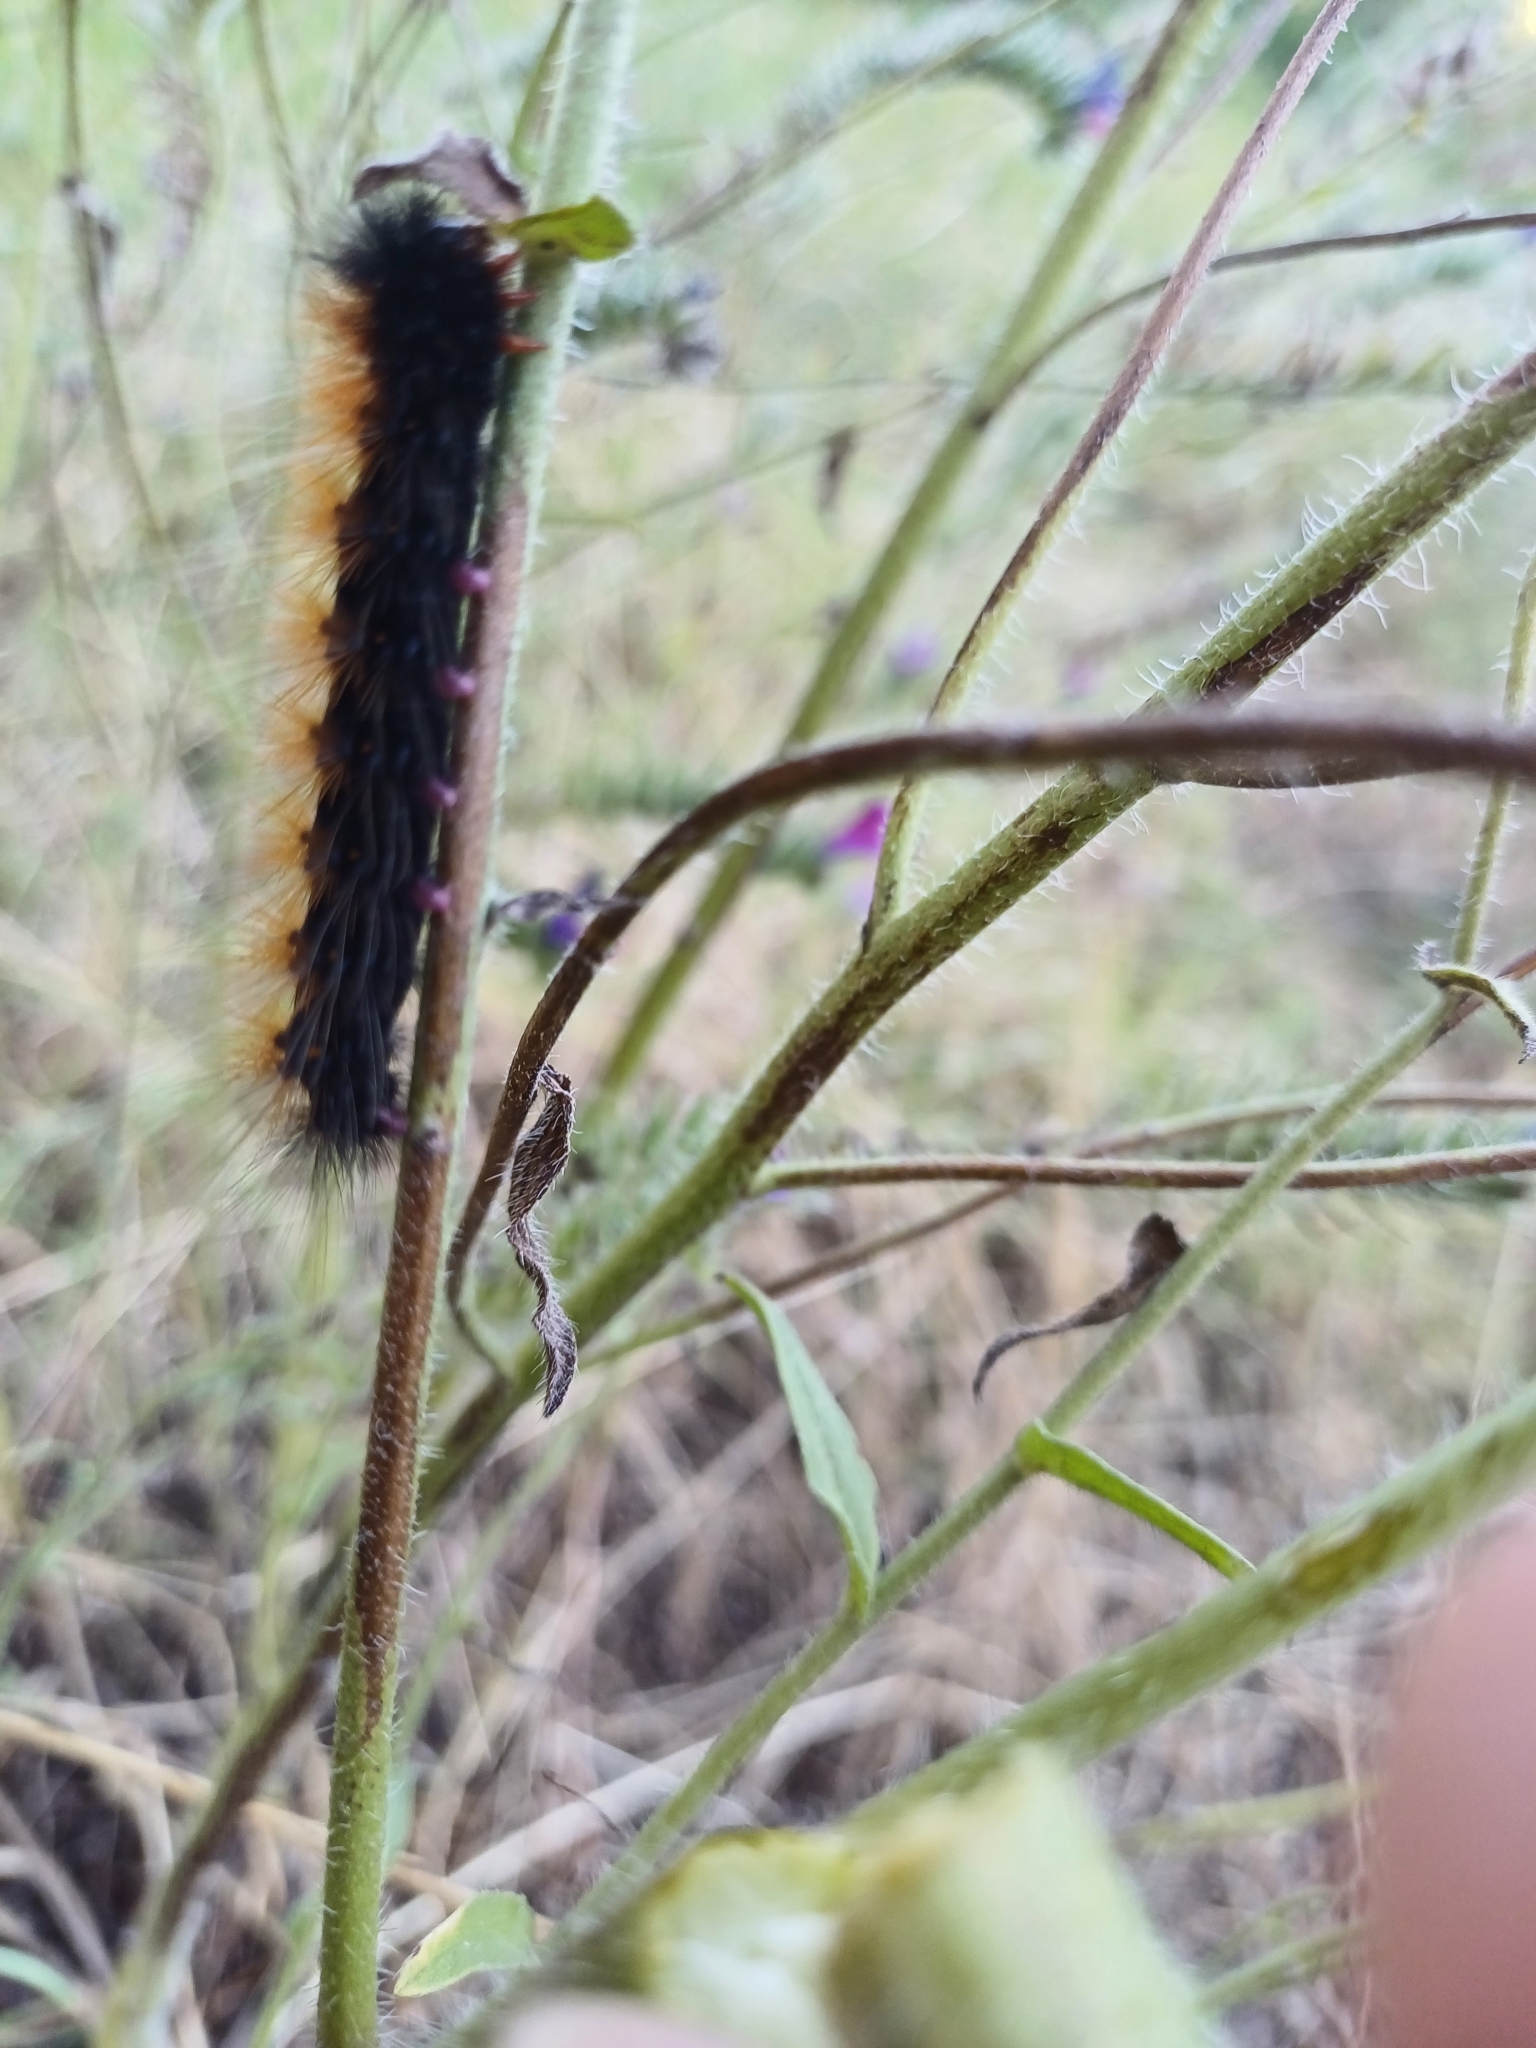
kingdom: Animalia
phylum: Arthropoda
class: Insecta
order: Lepidoptera
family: Erebidae
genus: Rhodogastria
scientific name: Rhodogastria amasis
